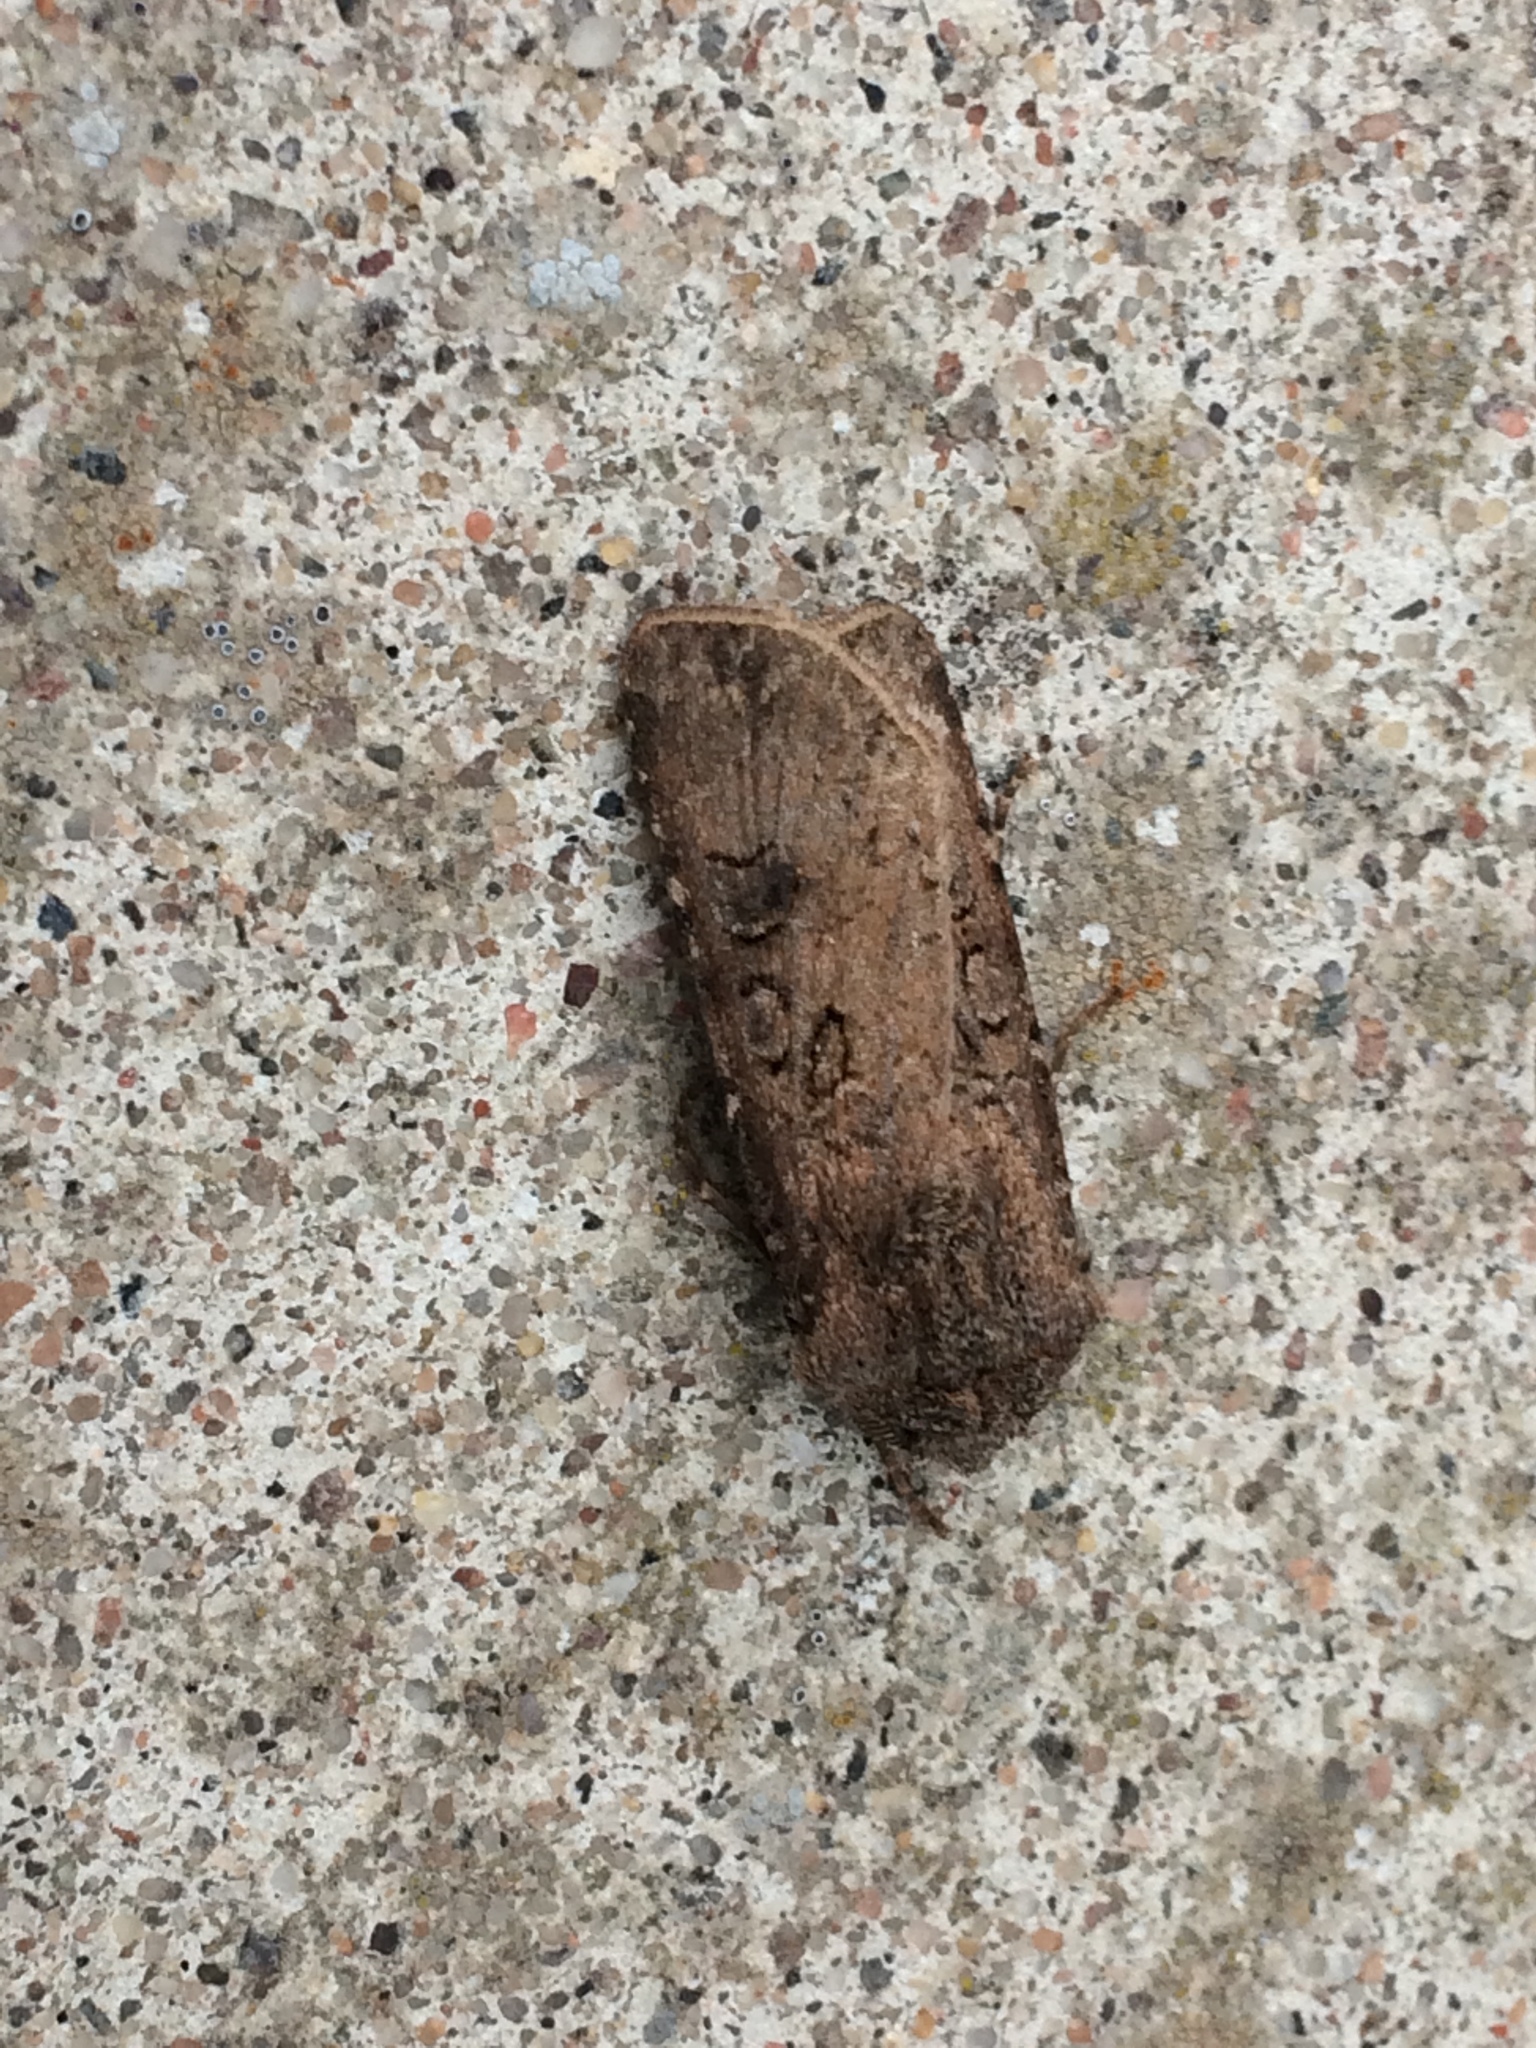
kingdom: Animalia
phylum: Arthropoda
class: Insecta
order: Lepidoptera
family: Noctuidae
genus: Agrotis
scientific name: Agrotis segetum
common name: Turnip moth
